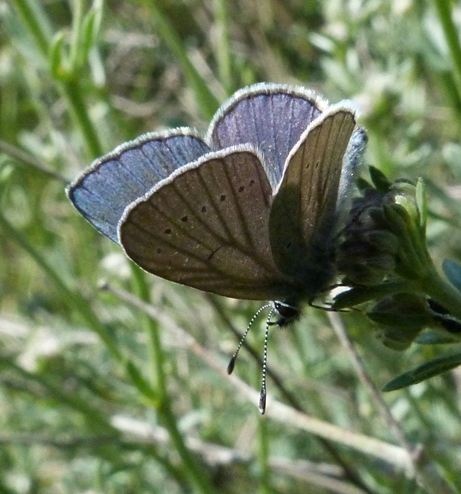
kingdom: Animalia
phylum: Arthropoda
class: Insecta
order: Lepidoptera
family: Lycaenidae
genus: Everes
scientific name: Everes sebrus
